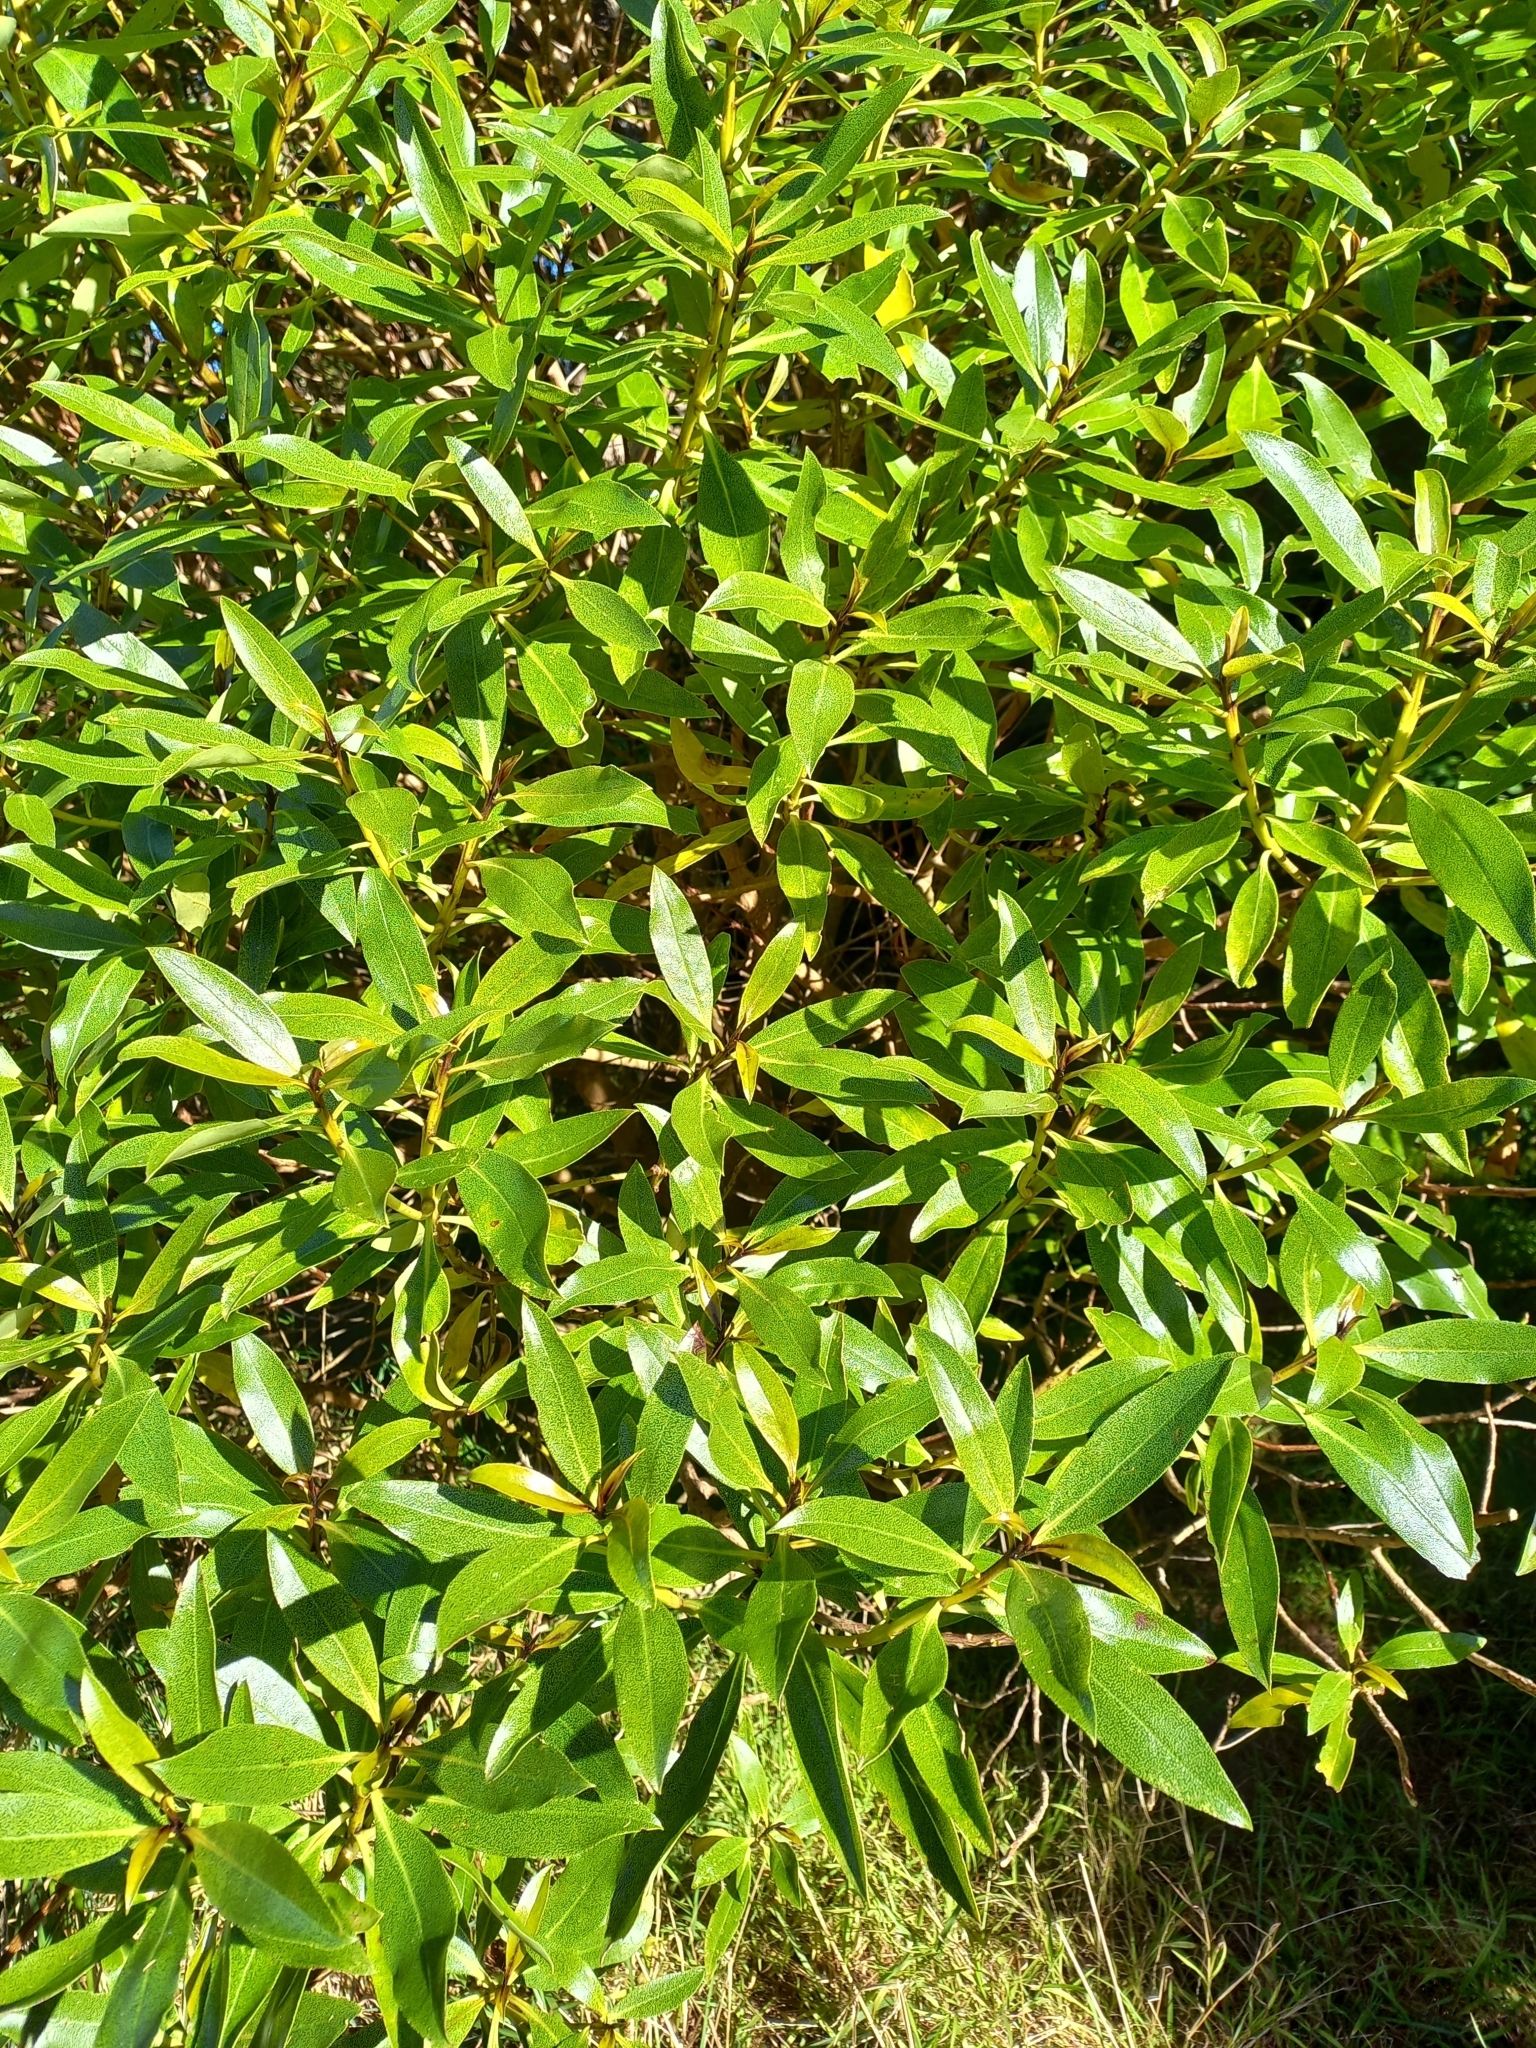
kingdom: Plantae
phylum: Tracheophyta
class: Magnoliopsida
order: Lamiales
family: Scrophulariaceae
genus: Myoporum
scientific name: Myoporum laetum
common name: Ngaio tree
